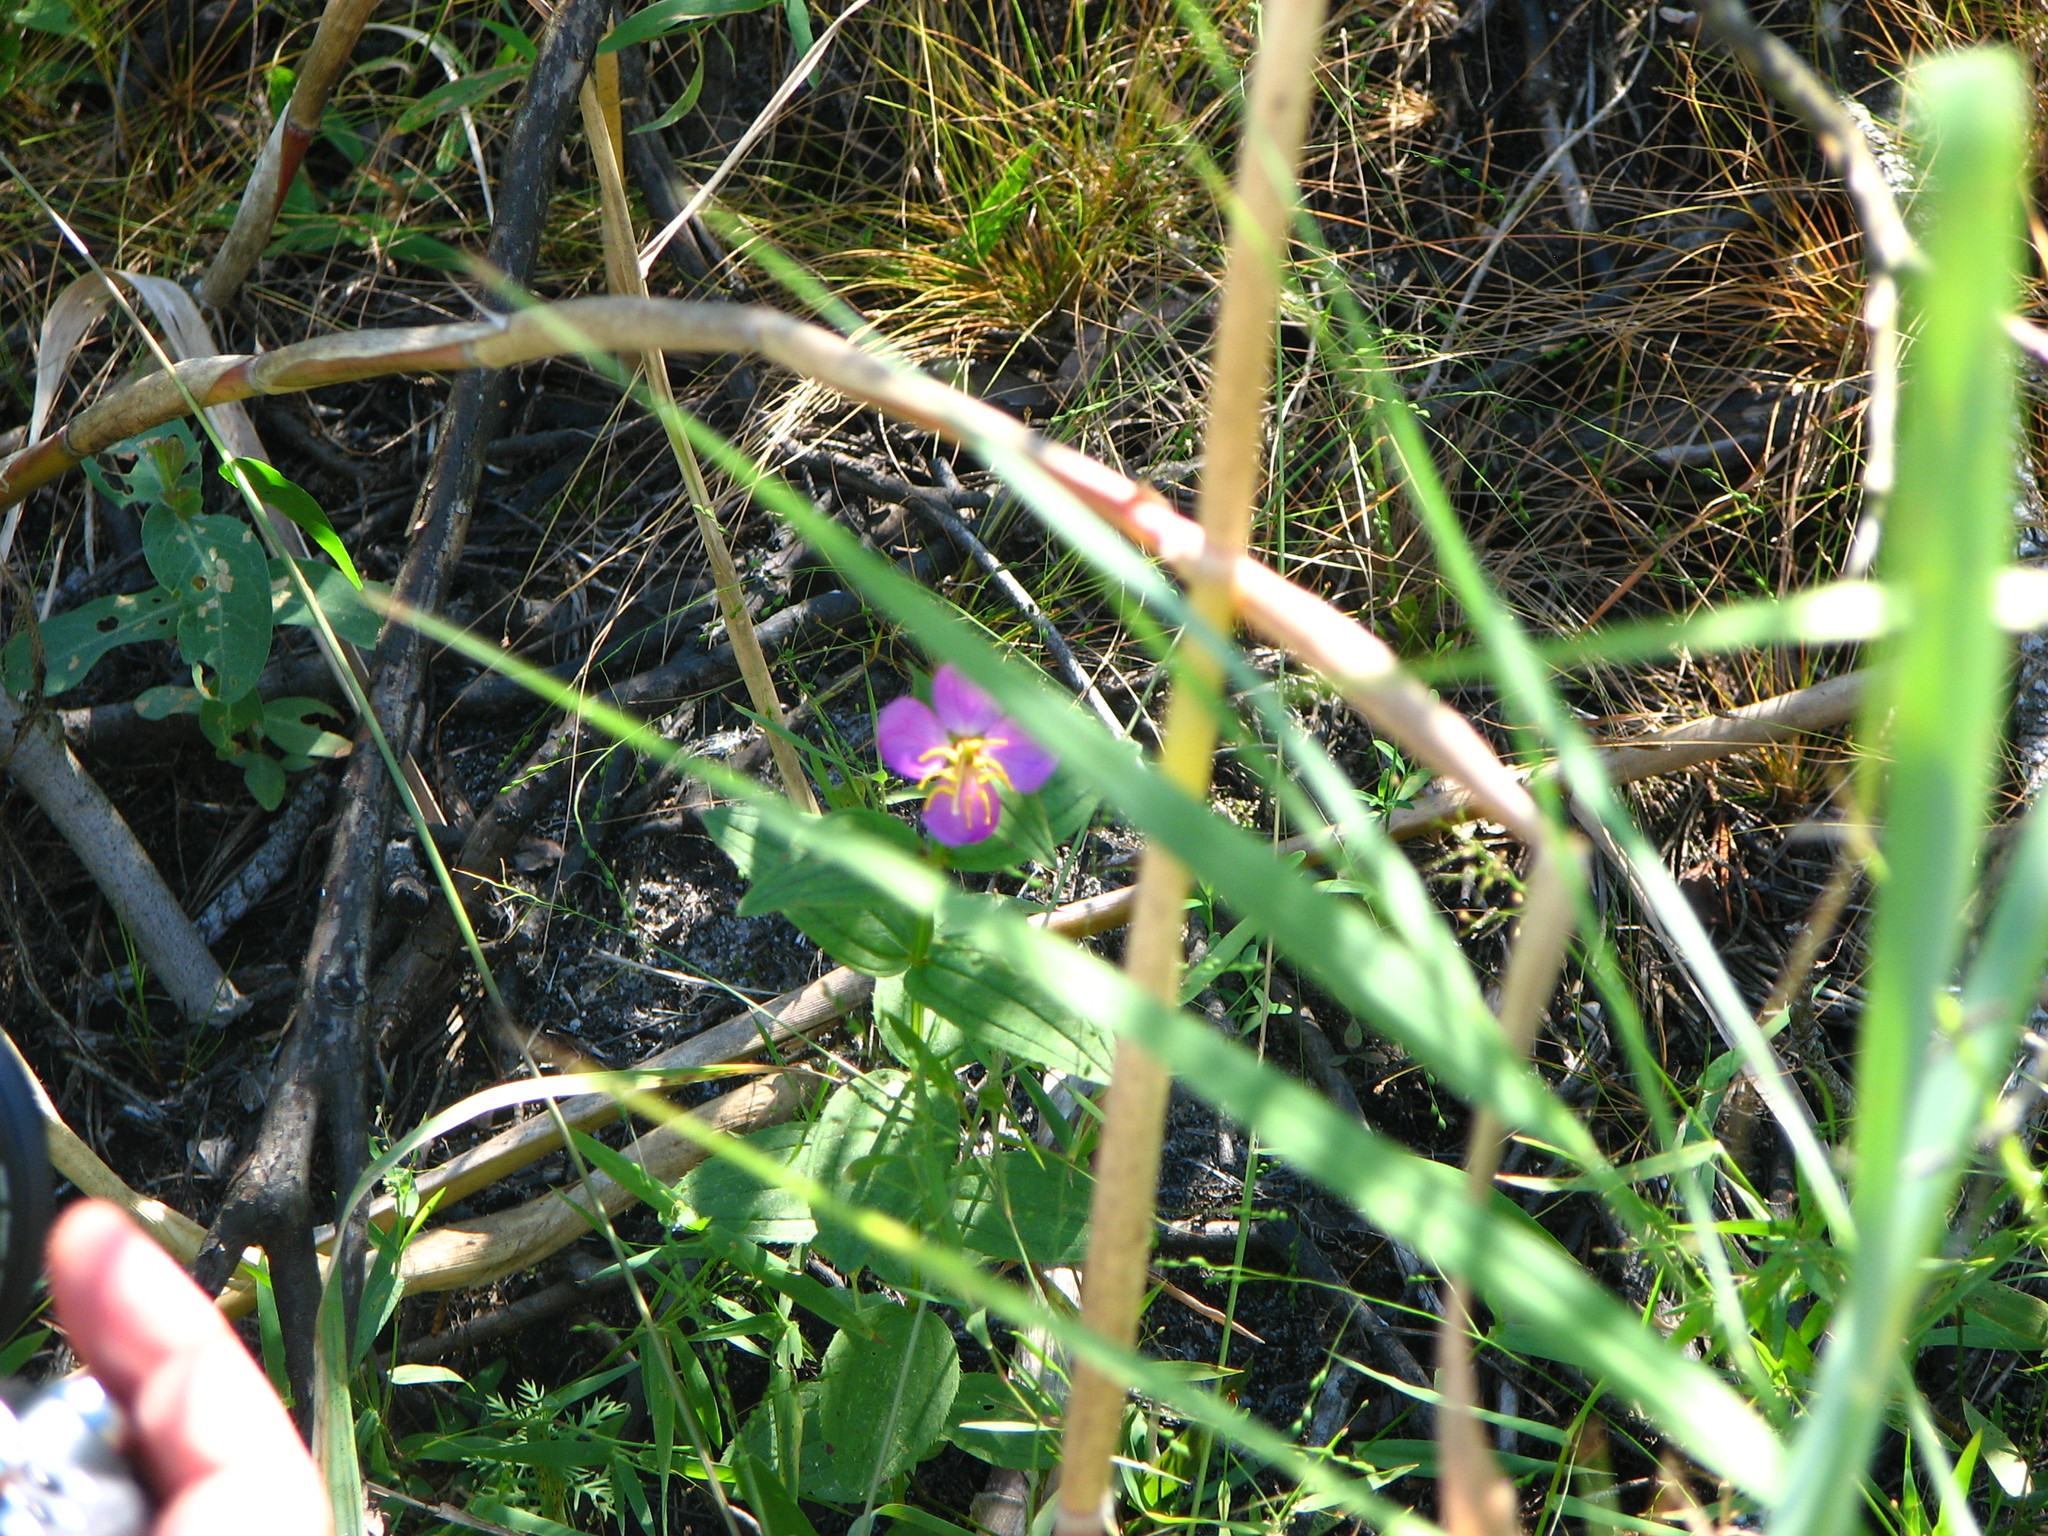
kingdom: Plantae
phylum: Tracheophyta
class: Magnoliopsida
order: Myrtales
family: Melastomataceae
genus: Rhexia
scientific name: Rhexia virginica
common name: Common meadow beauty
